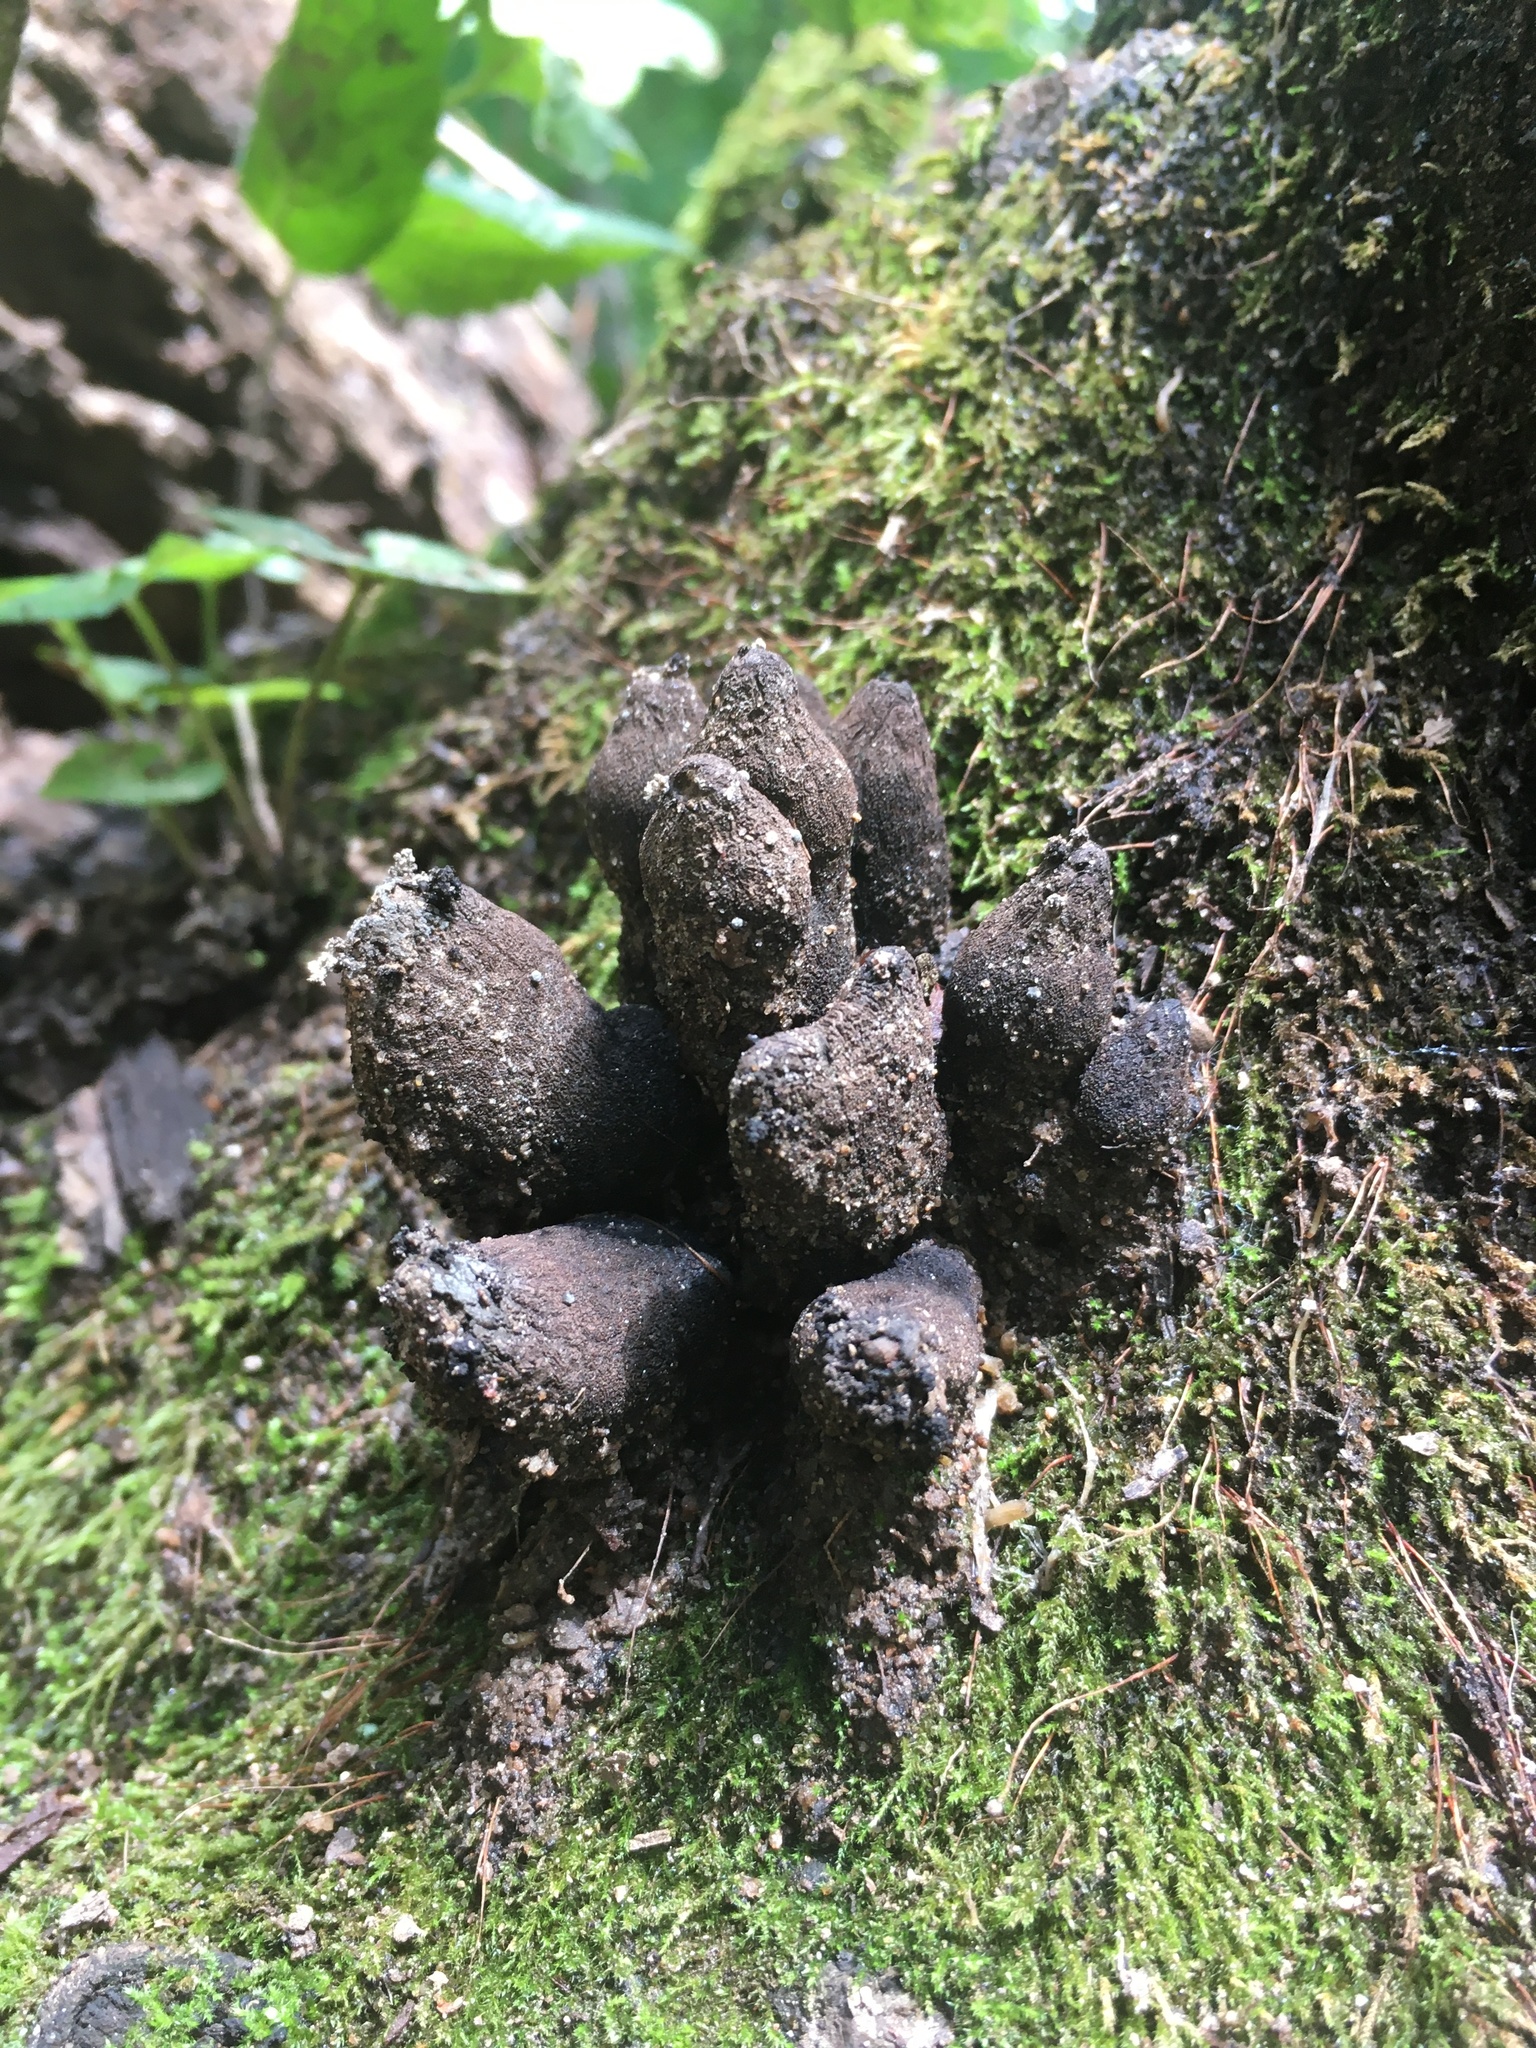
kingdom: Fungi
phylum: Ascomycota
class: Sordariomycetes
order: Xylariales
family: Xylariaceae
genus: Xylaria
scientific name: Xylaria polymorpha
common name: Dead man's fingers
